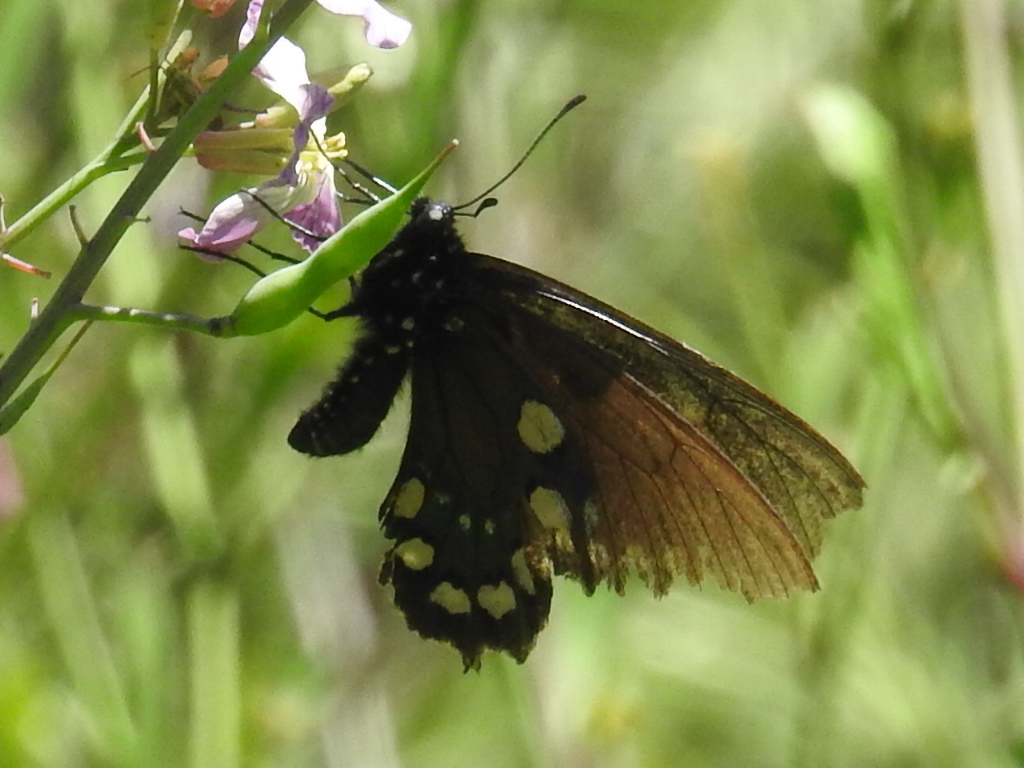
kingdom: Animalia
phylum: Arthropoda
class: Insecta
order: Lepidoptera
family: Papilionidae
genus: Battus
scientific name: Battus philenor
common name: Pipevine swallowtail
